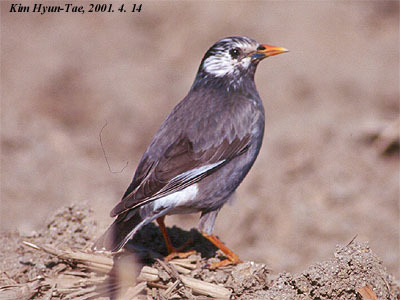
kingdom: Animalia
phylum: Chordata
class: Aves
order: Passeriformes
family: Sturnidae
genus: Spodiopsar
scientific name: Spodiopsar cineraceus
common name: White-cheeked starling
